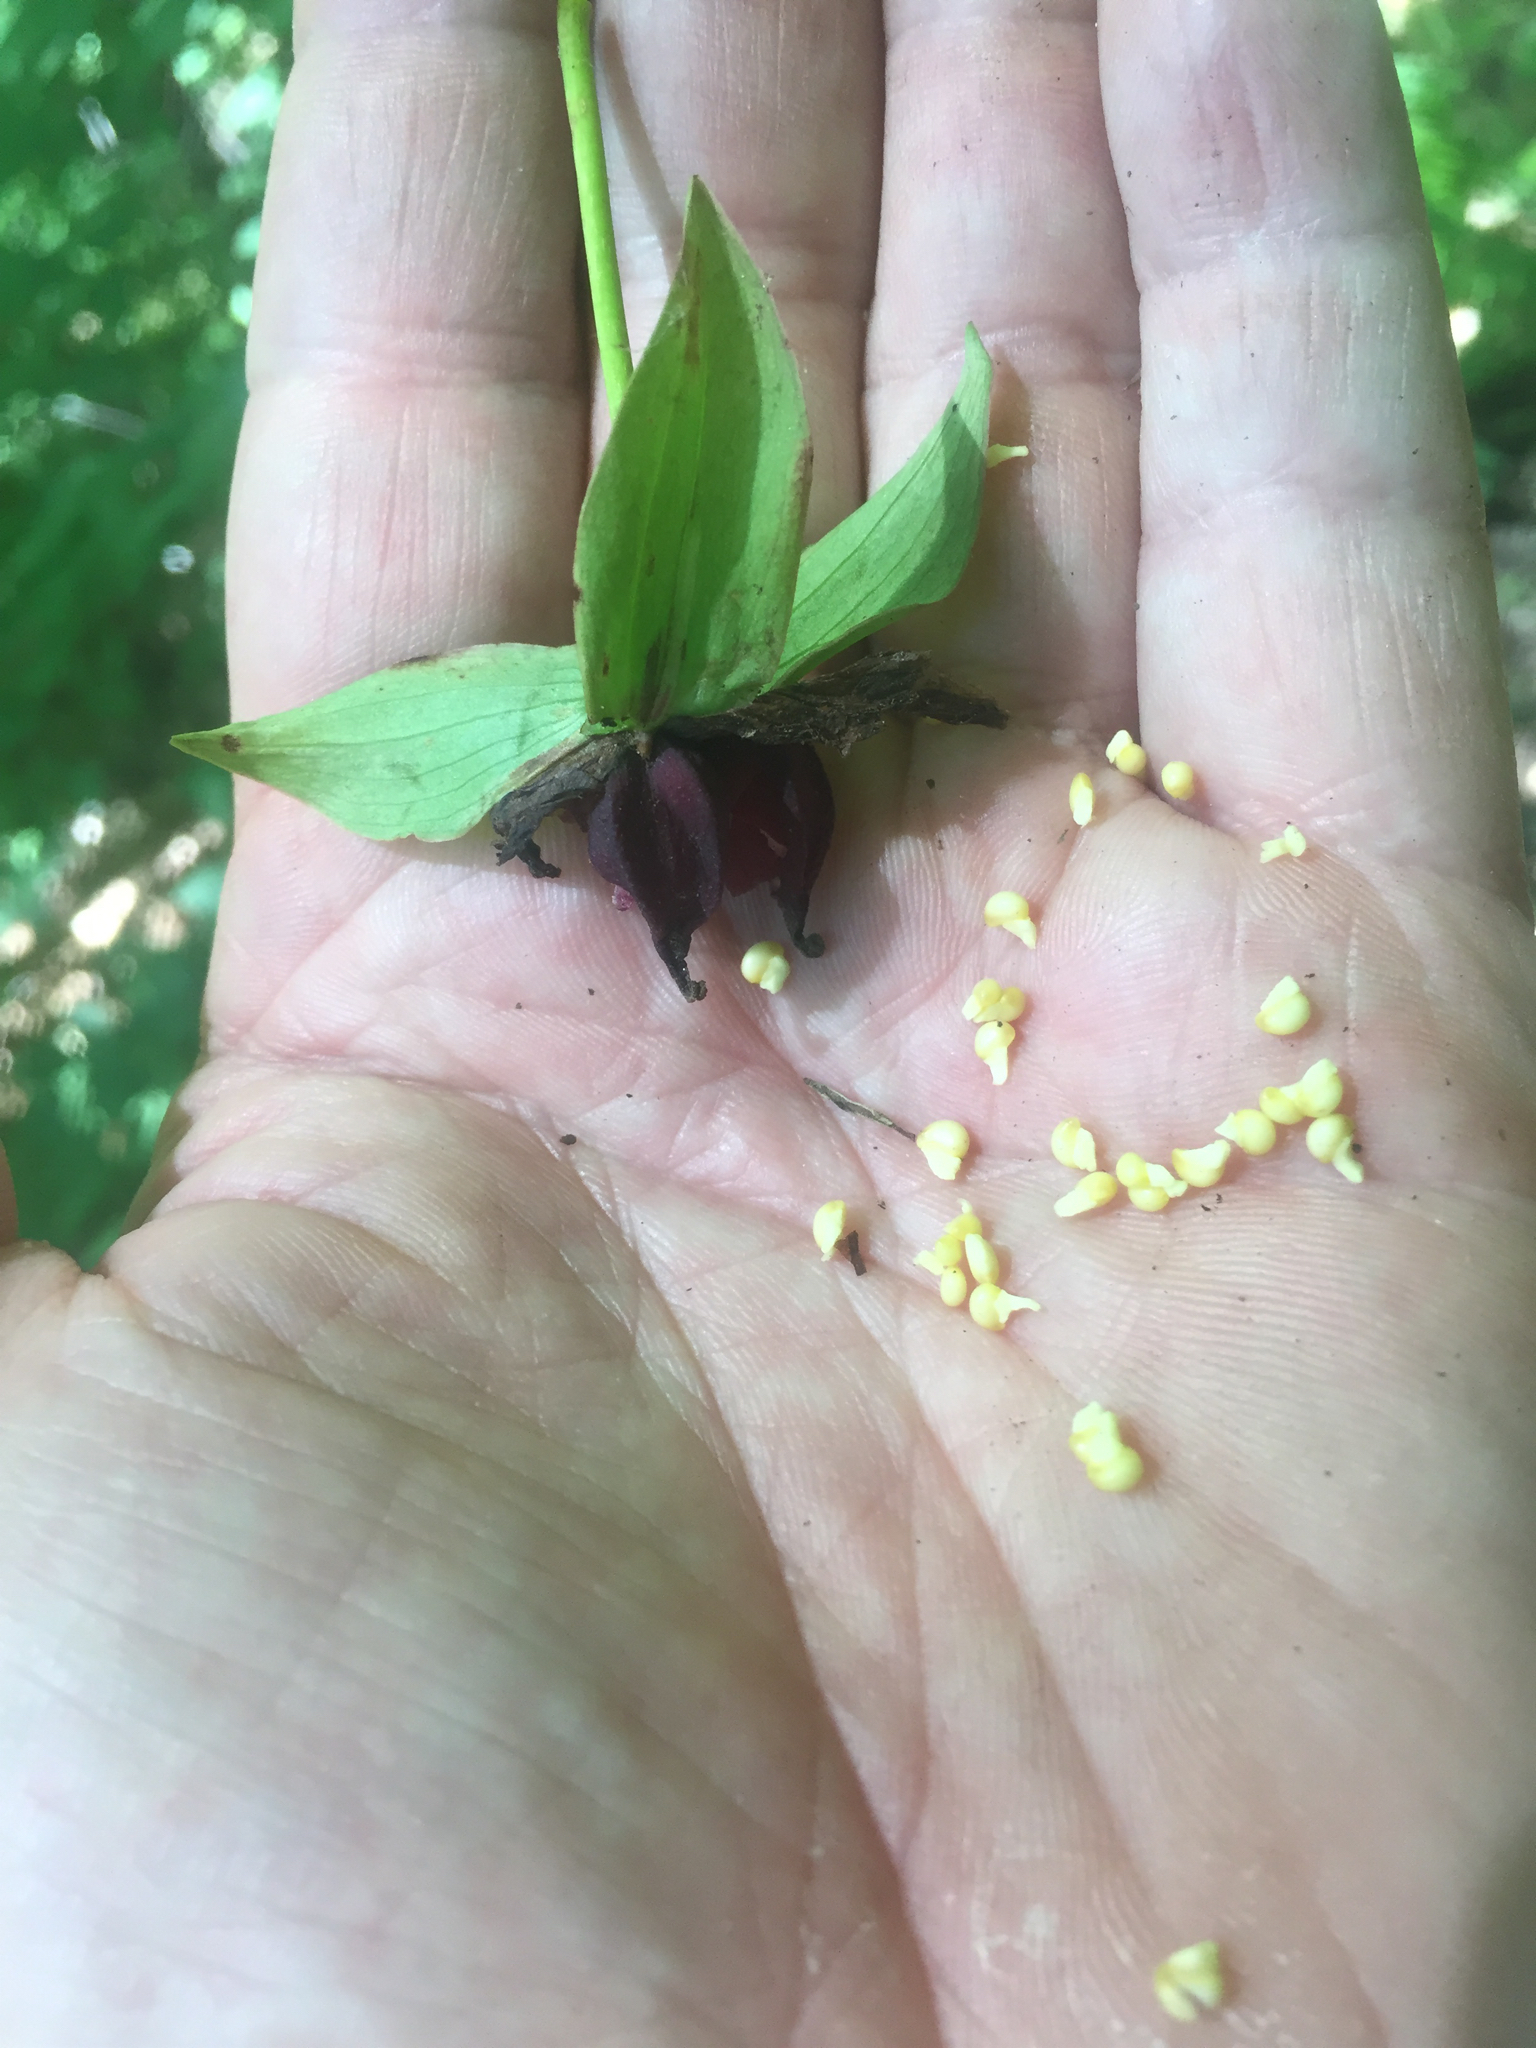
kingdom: Plantae
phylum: Tracheophyta
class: Liliopsida
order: Liliales
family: Melanthiaceae
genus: Trillium
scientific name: Trillium erectum
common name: Purple trillium
